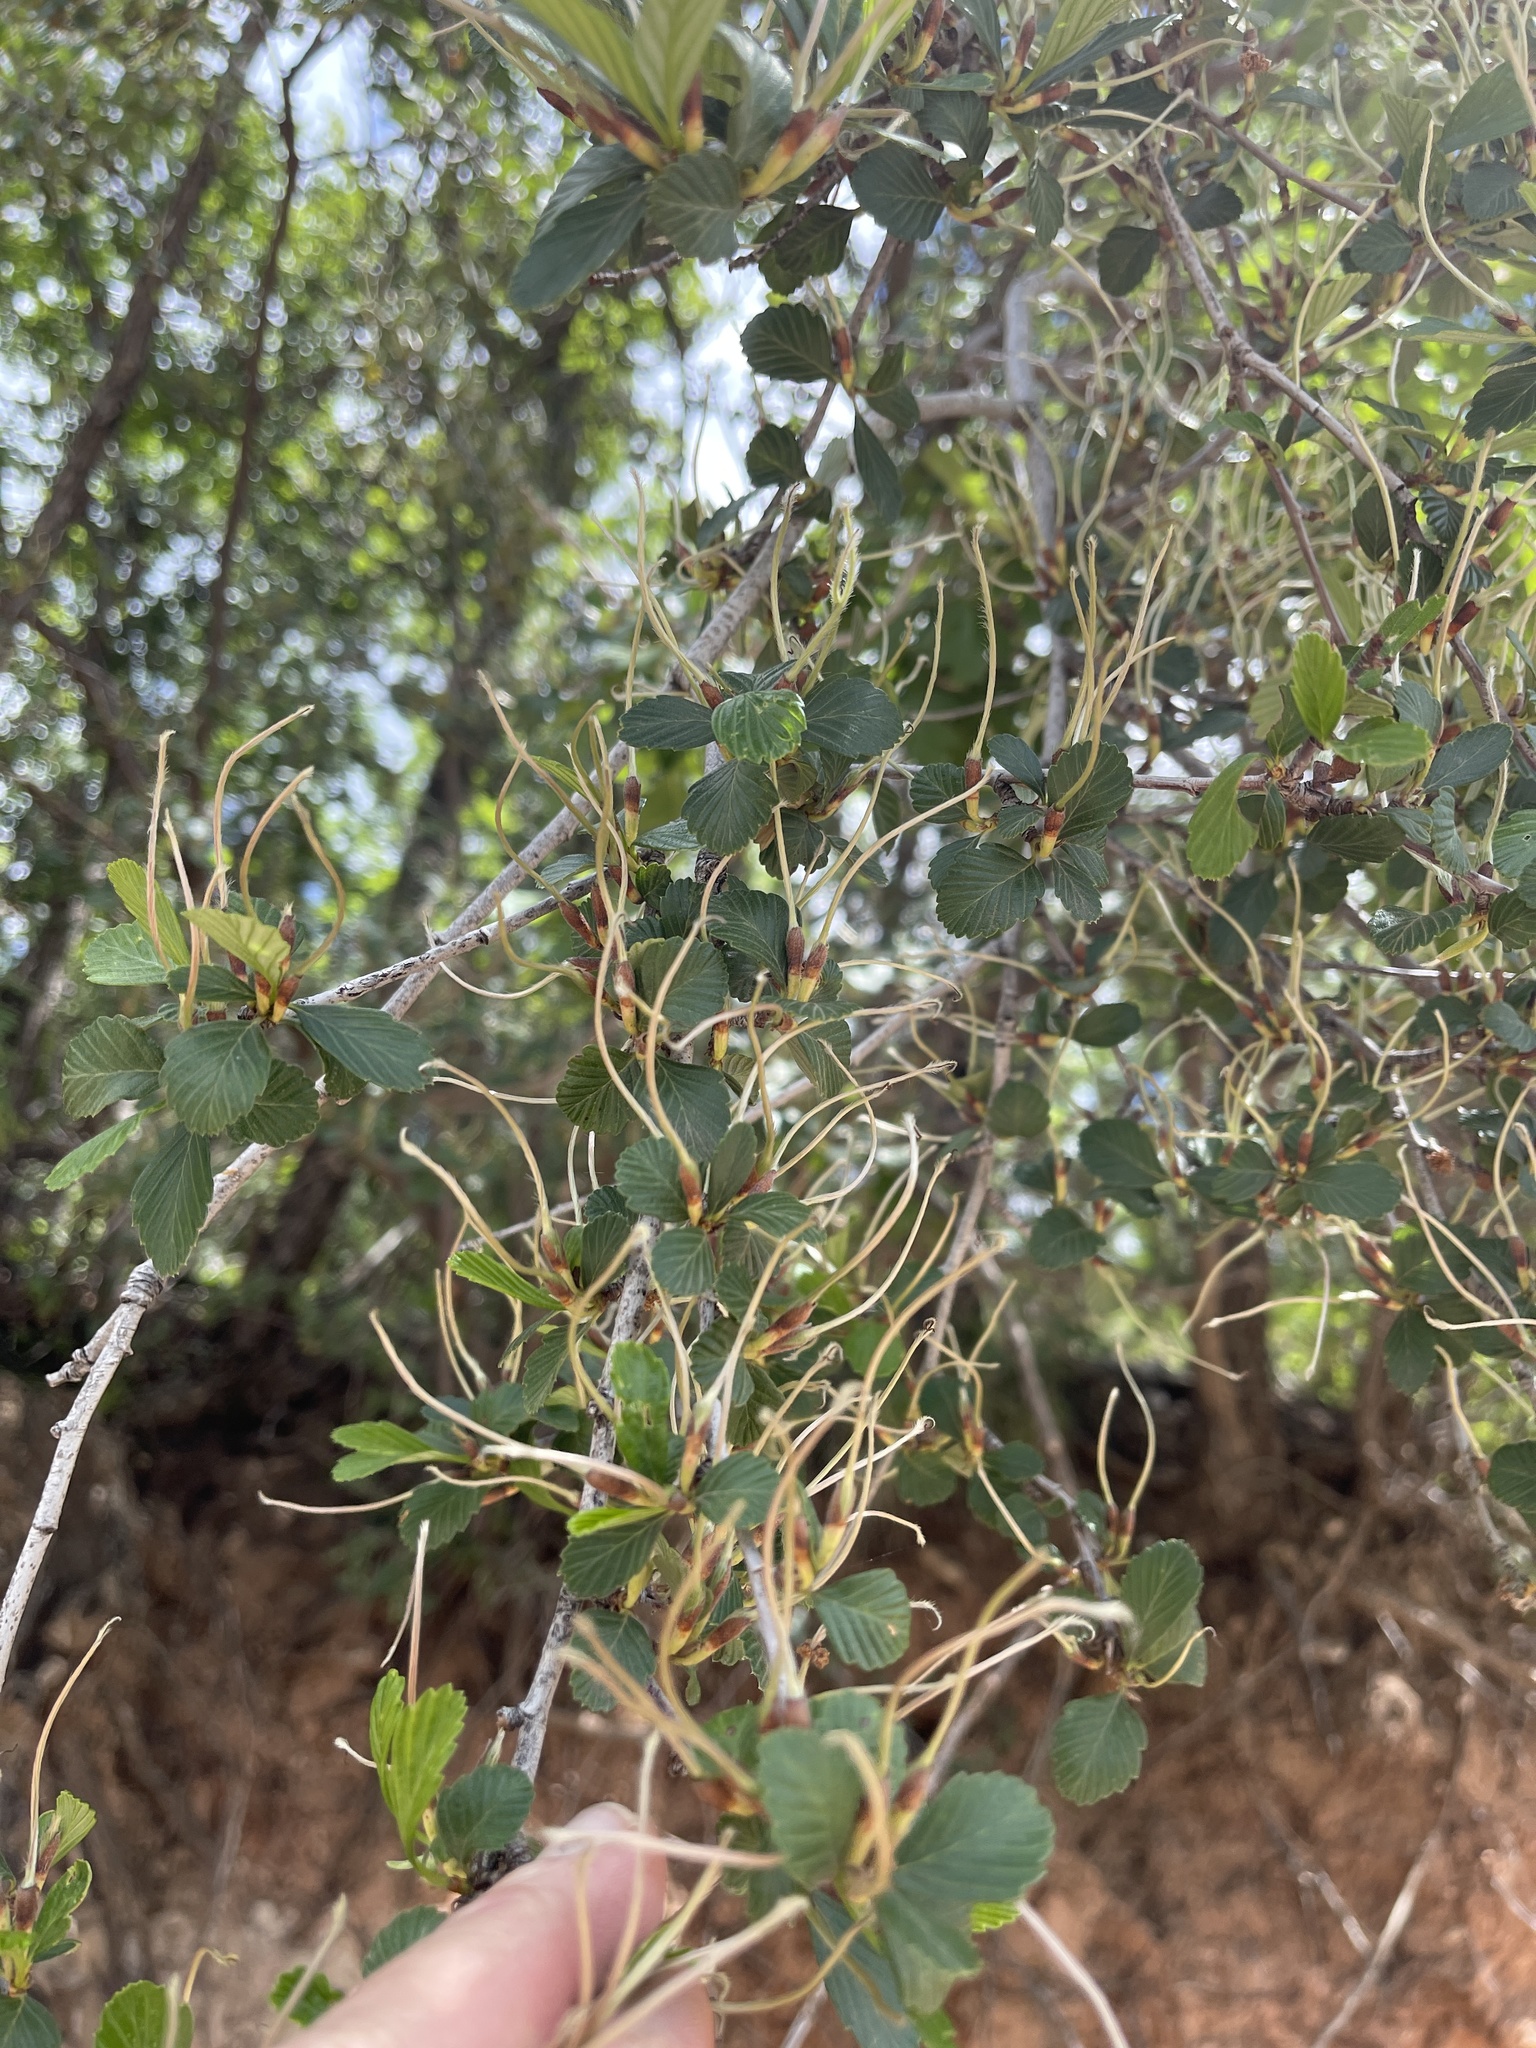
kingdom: Plantae
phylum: Tracheophyta
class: Magnoliopsida
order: Rosales
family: Rosaceae
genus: Cercocarpus
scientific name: Cercocarpus montanus
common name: Alder-leaf cercocarpus
